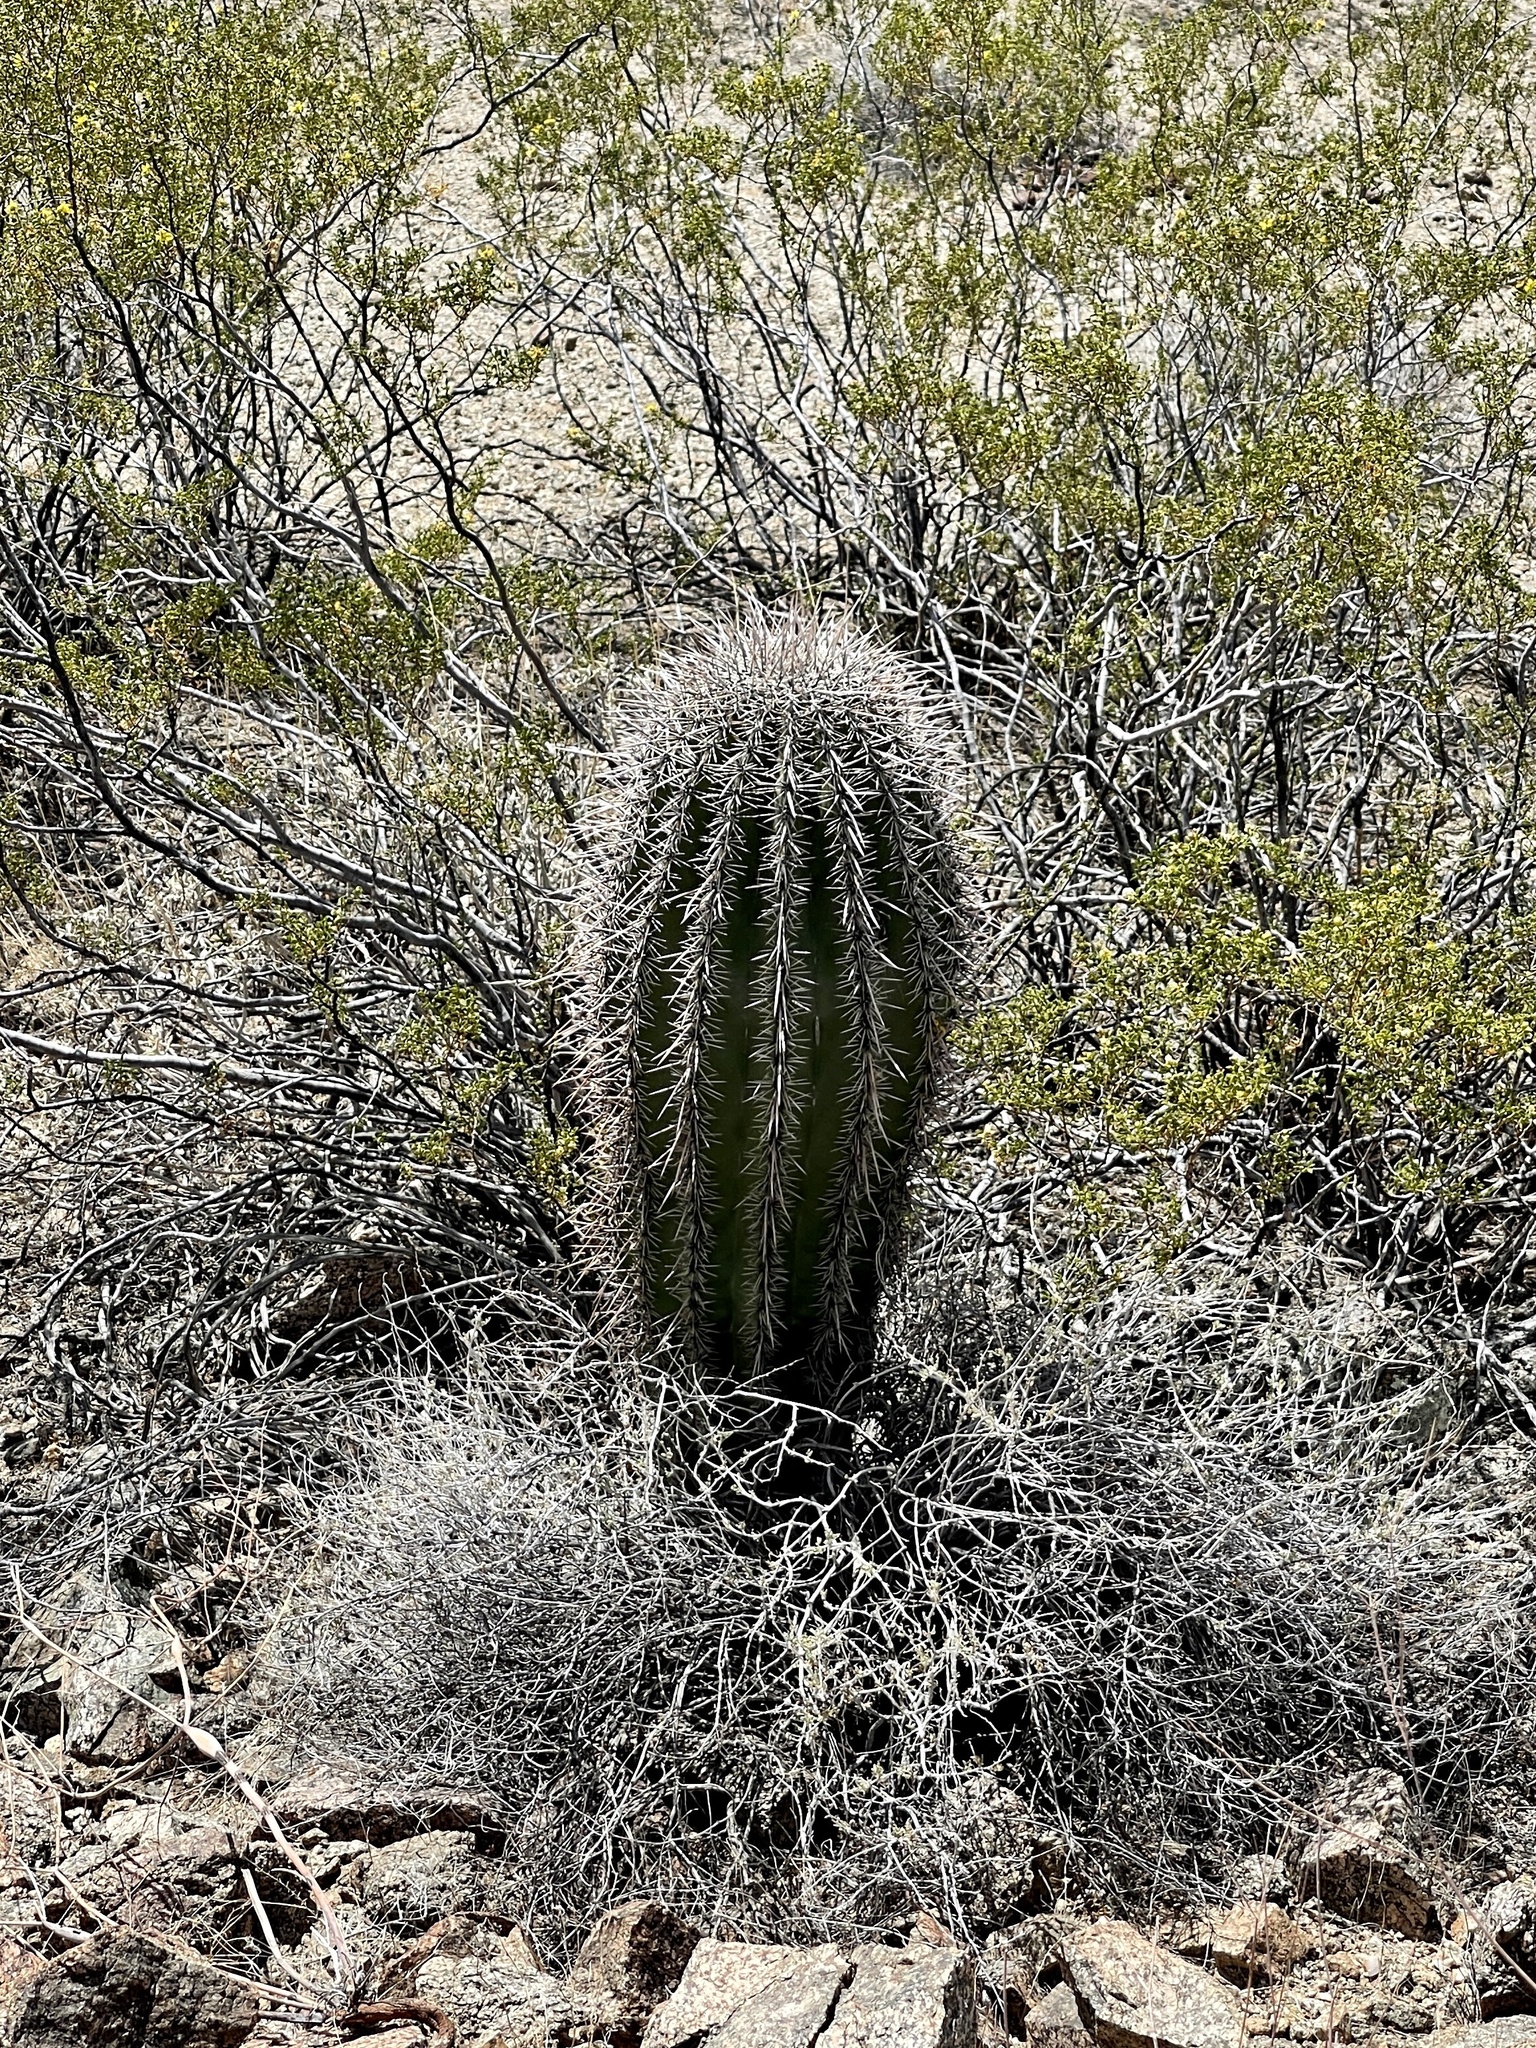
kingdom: Plantae
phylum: Tracheophyta
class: Magnoliopsida
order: Caryophyllales
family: Cactaceae
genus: Carnegiea
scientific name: Carnegiea gigantea
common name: Saguaro
